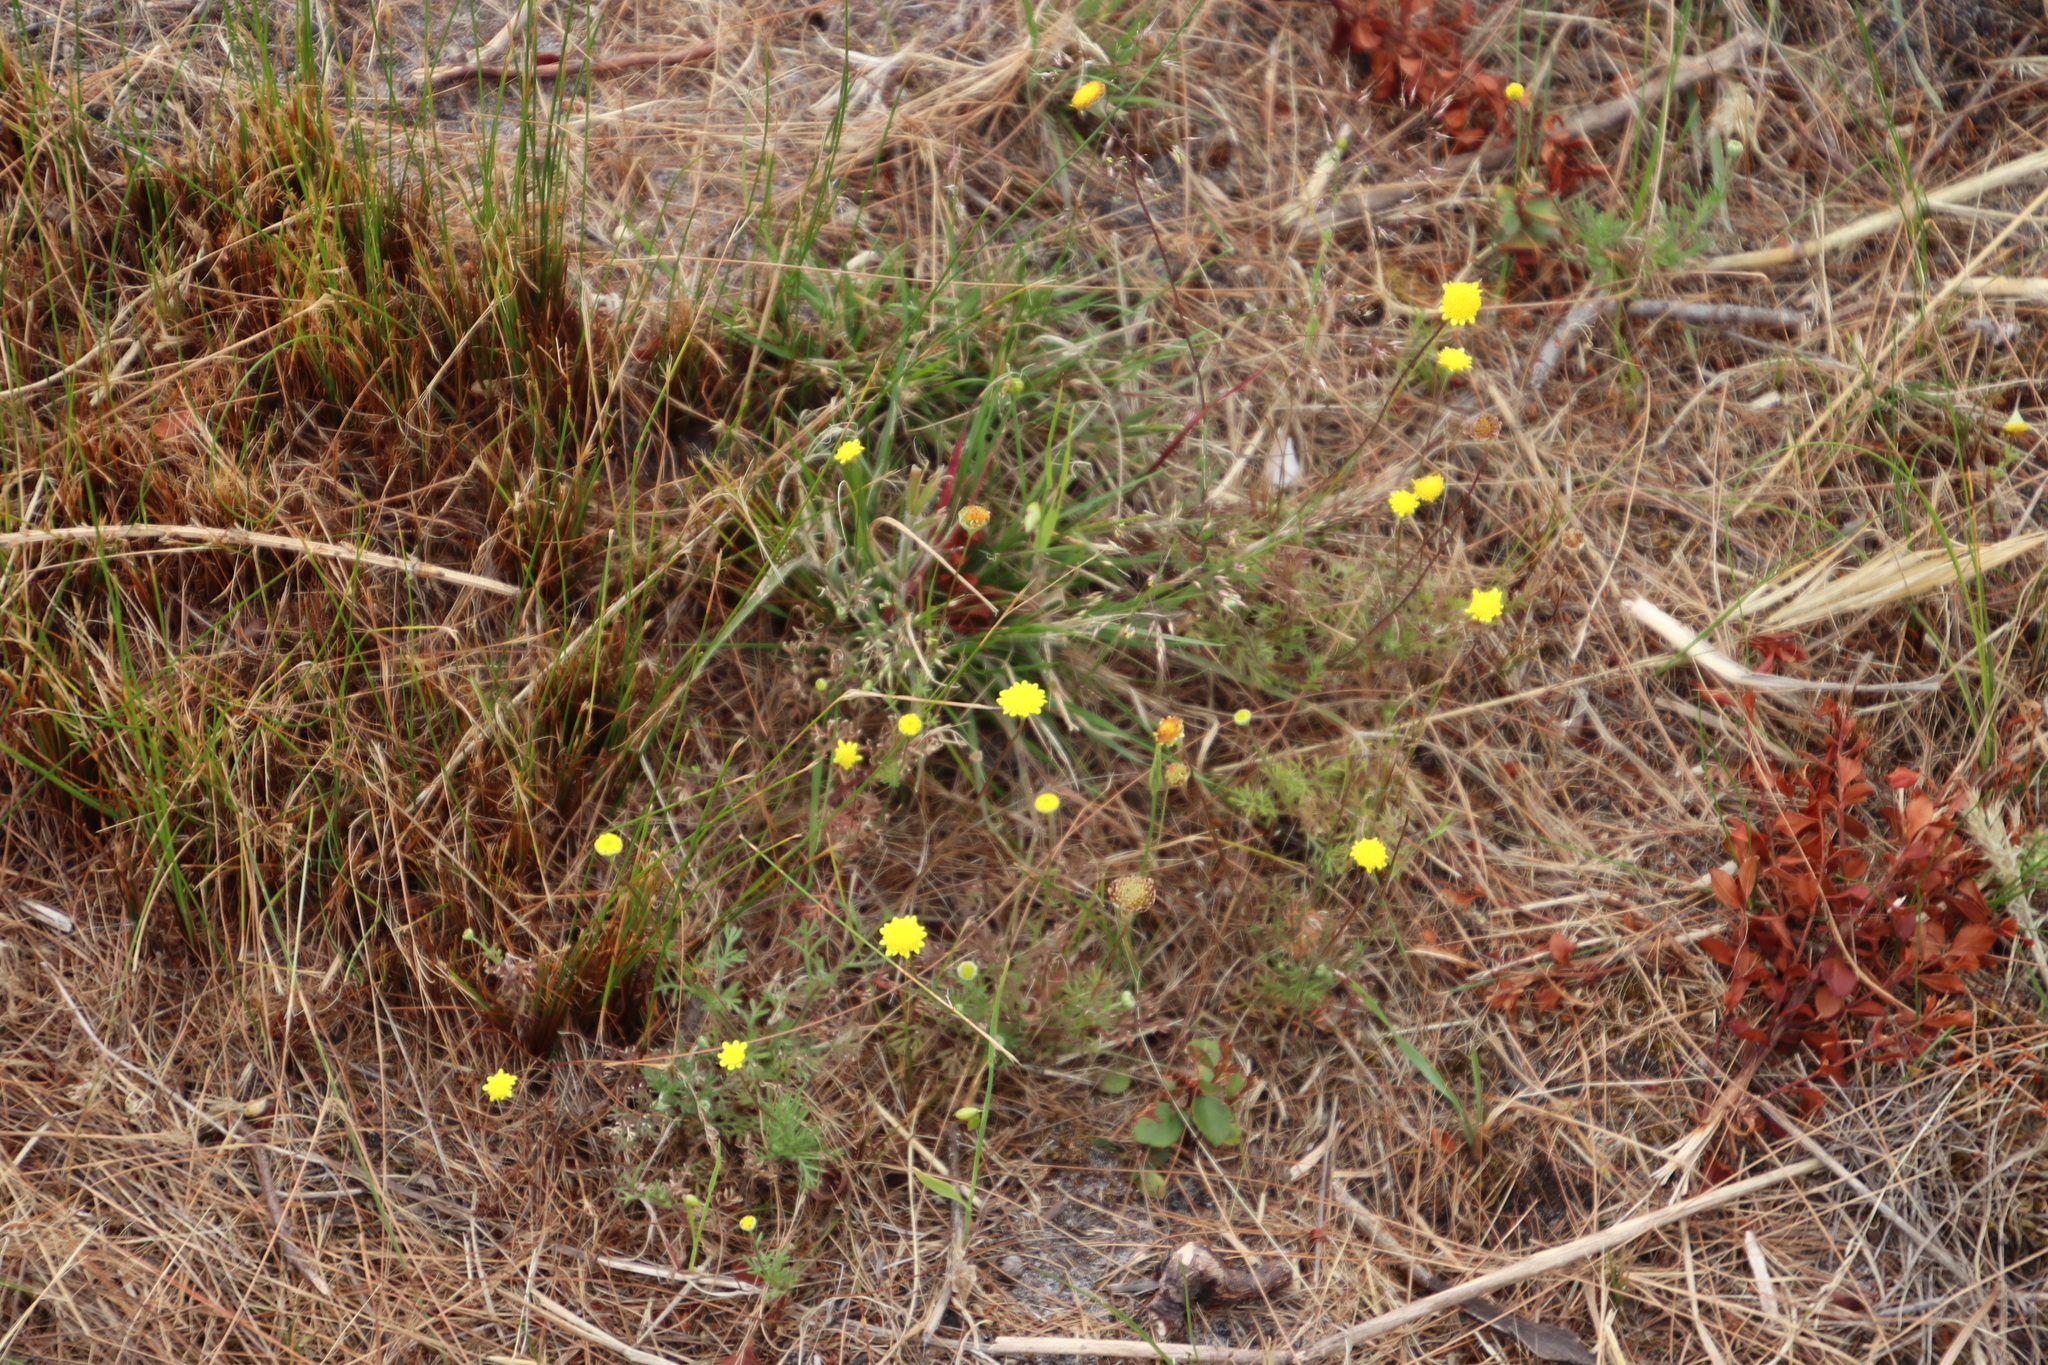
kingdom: Plantae
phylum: Tracheophyta
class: Magnoliopsida
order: Asterales
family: Asteraceae
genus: Cotula
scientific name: Cotula pruinosa
